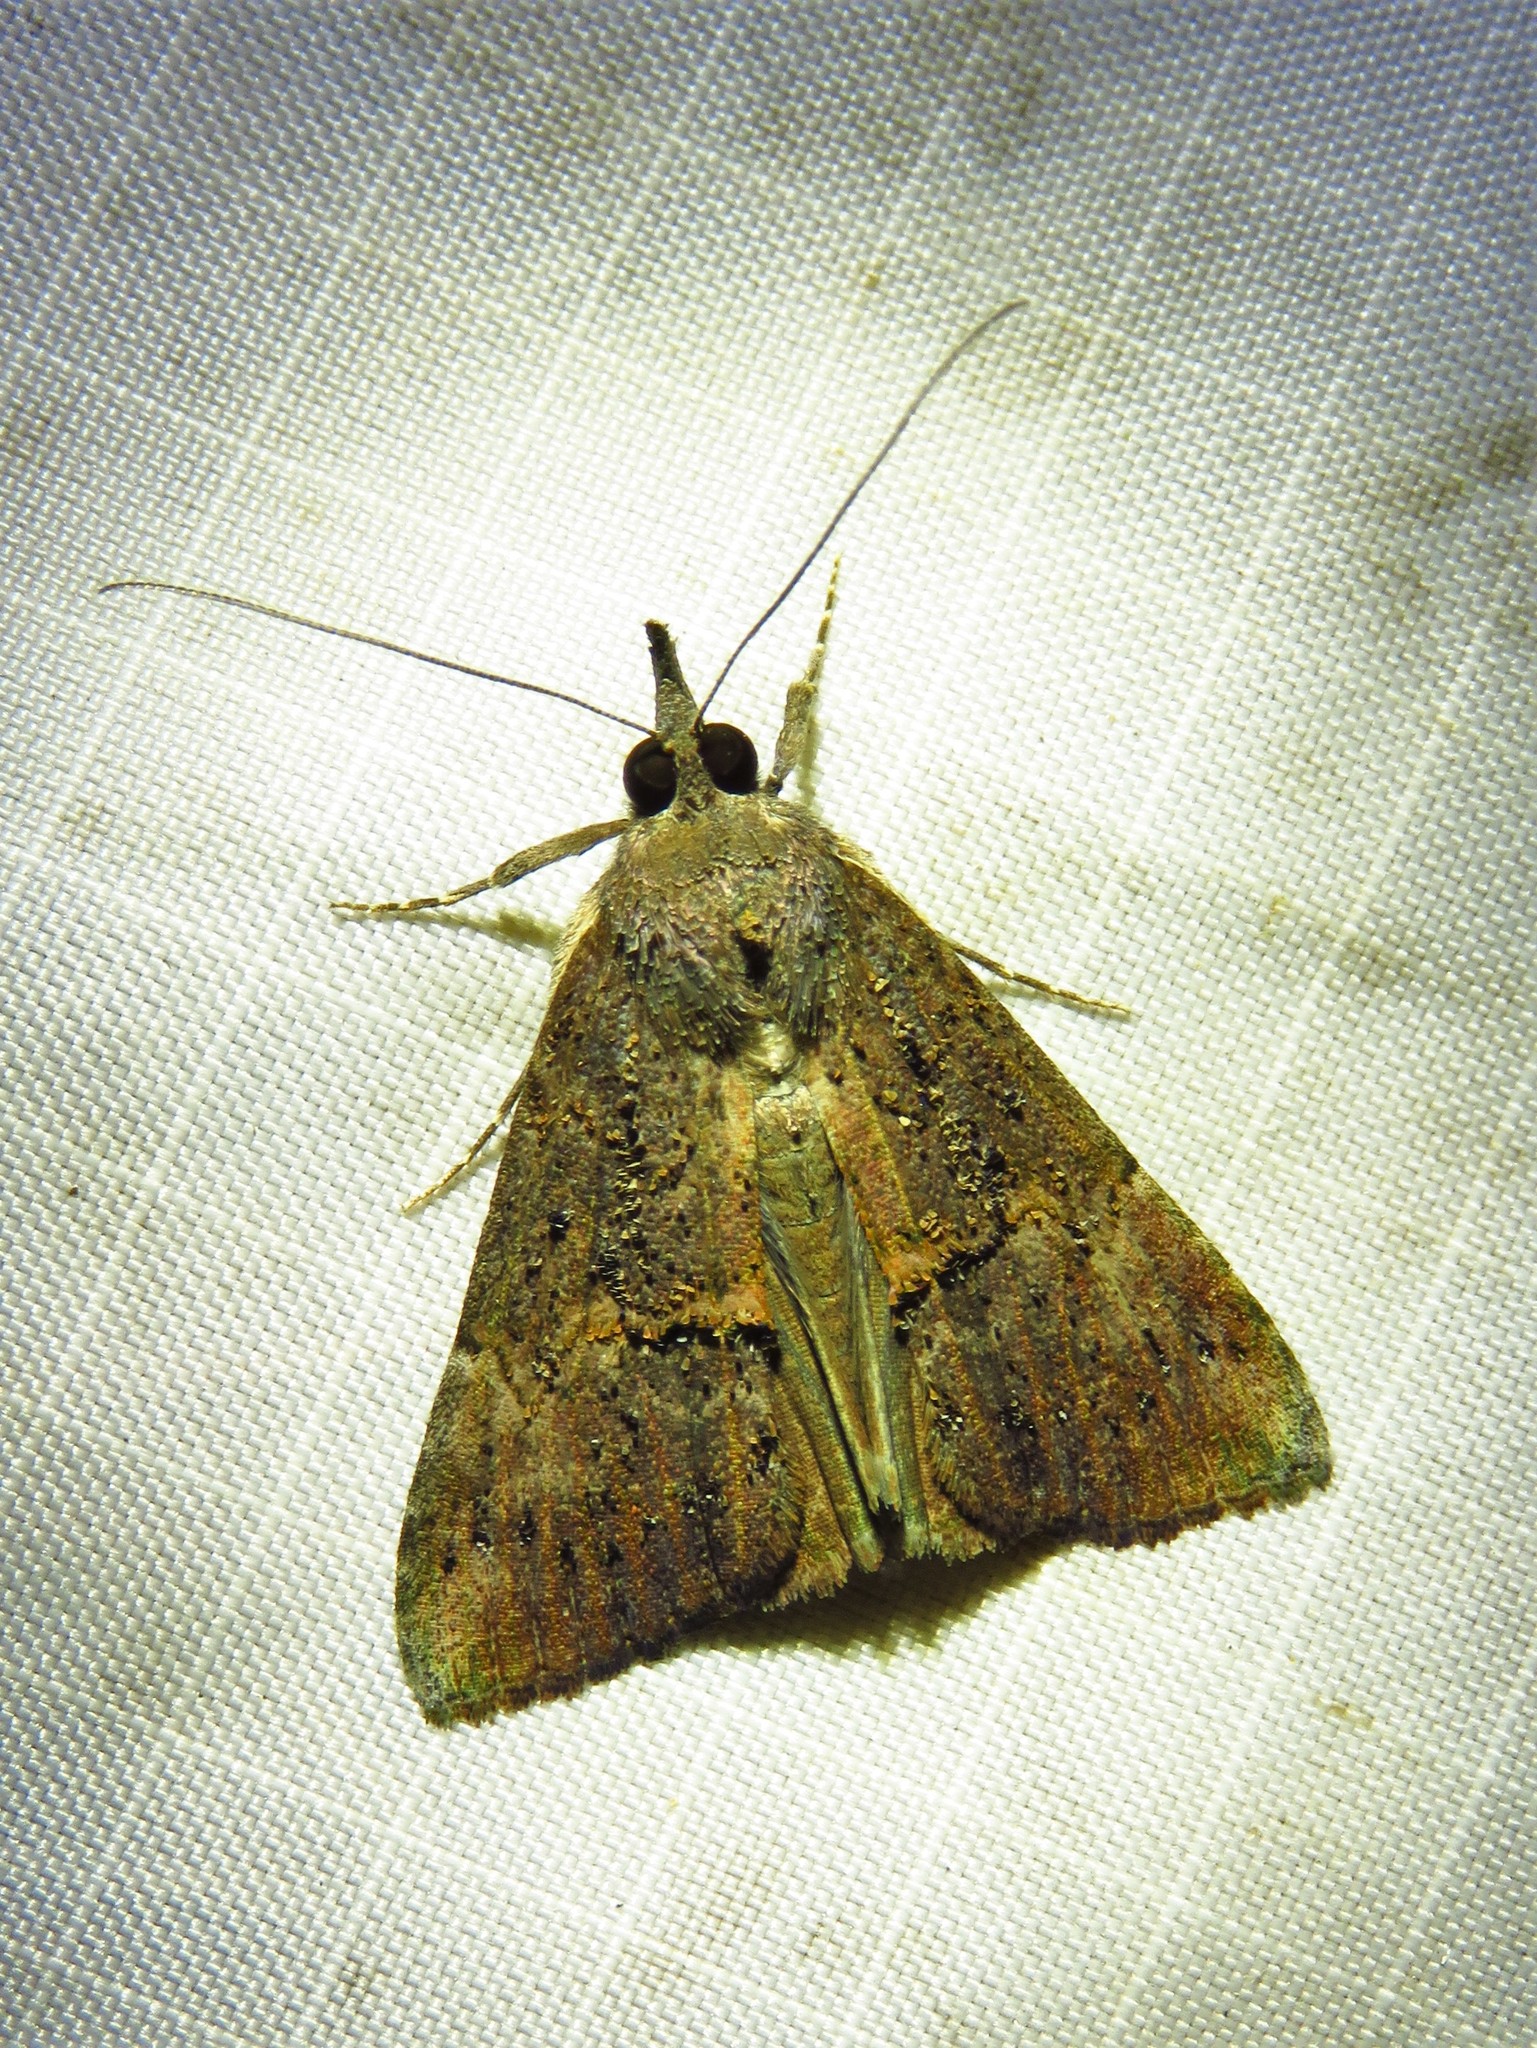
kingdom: Animalia
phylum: Arthropoda
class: Insecta
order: Lepidoptera
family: Erebidae
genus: Hypena
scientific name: Hypena scabra
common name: Green cloverworm
